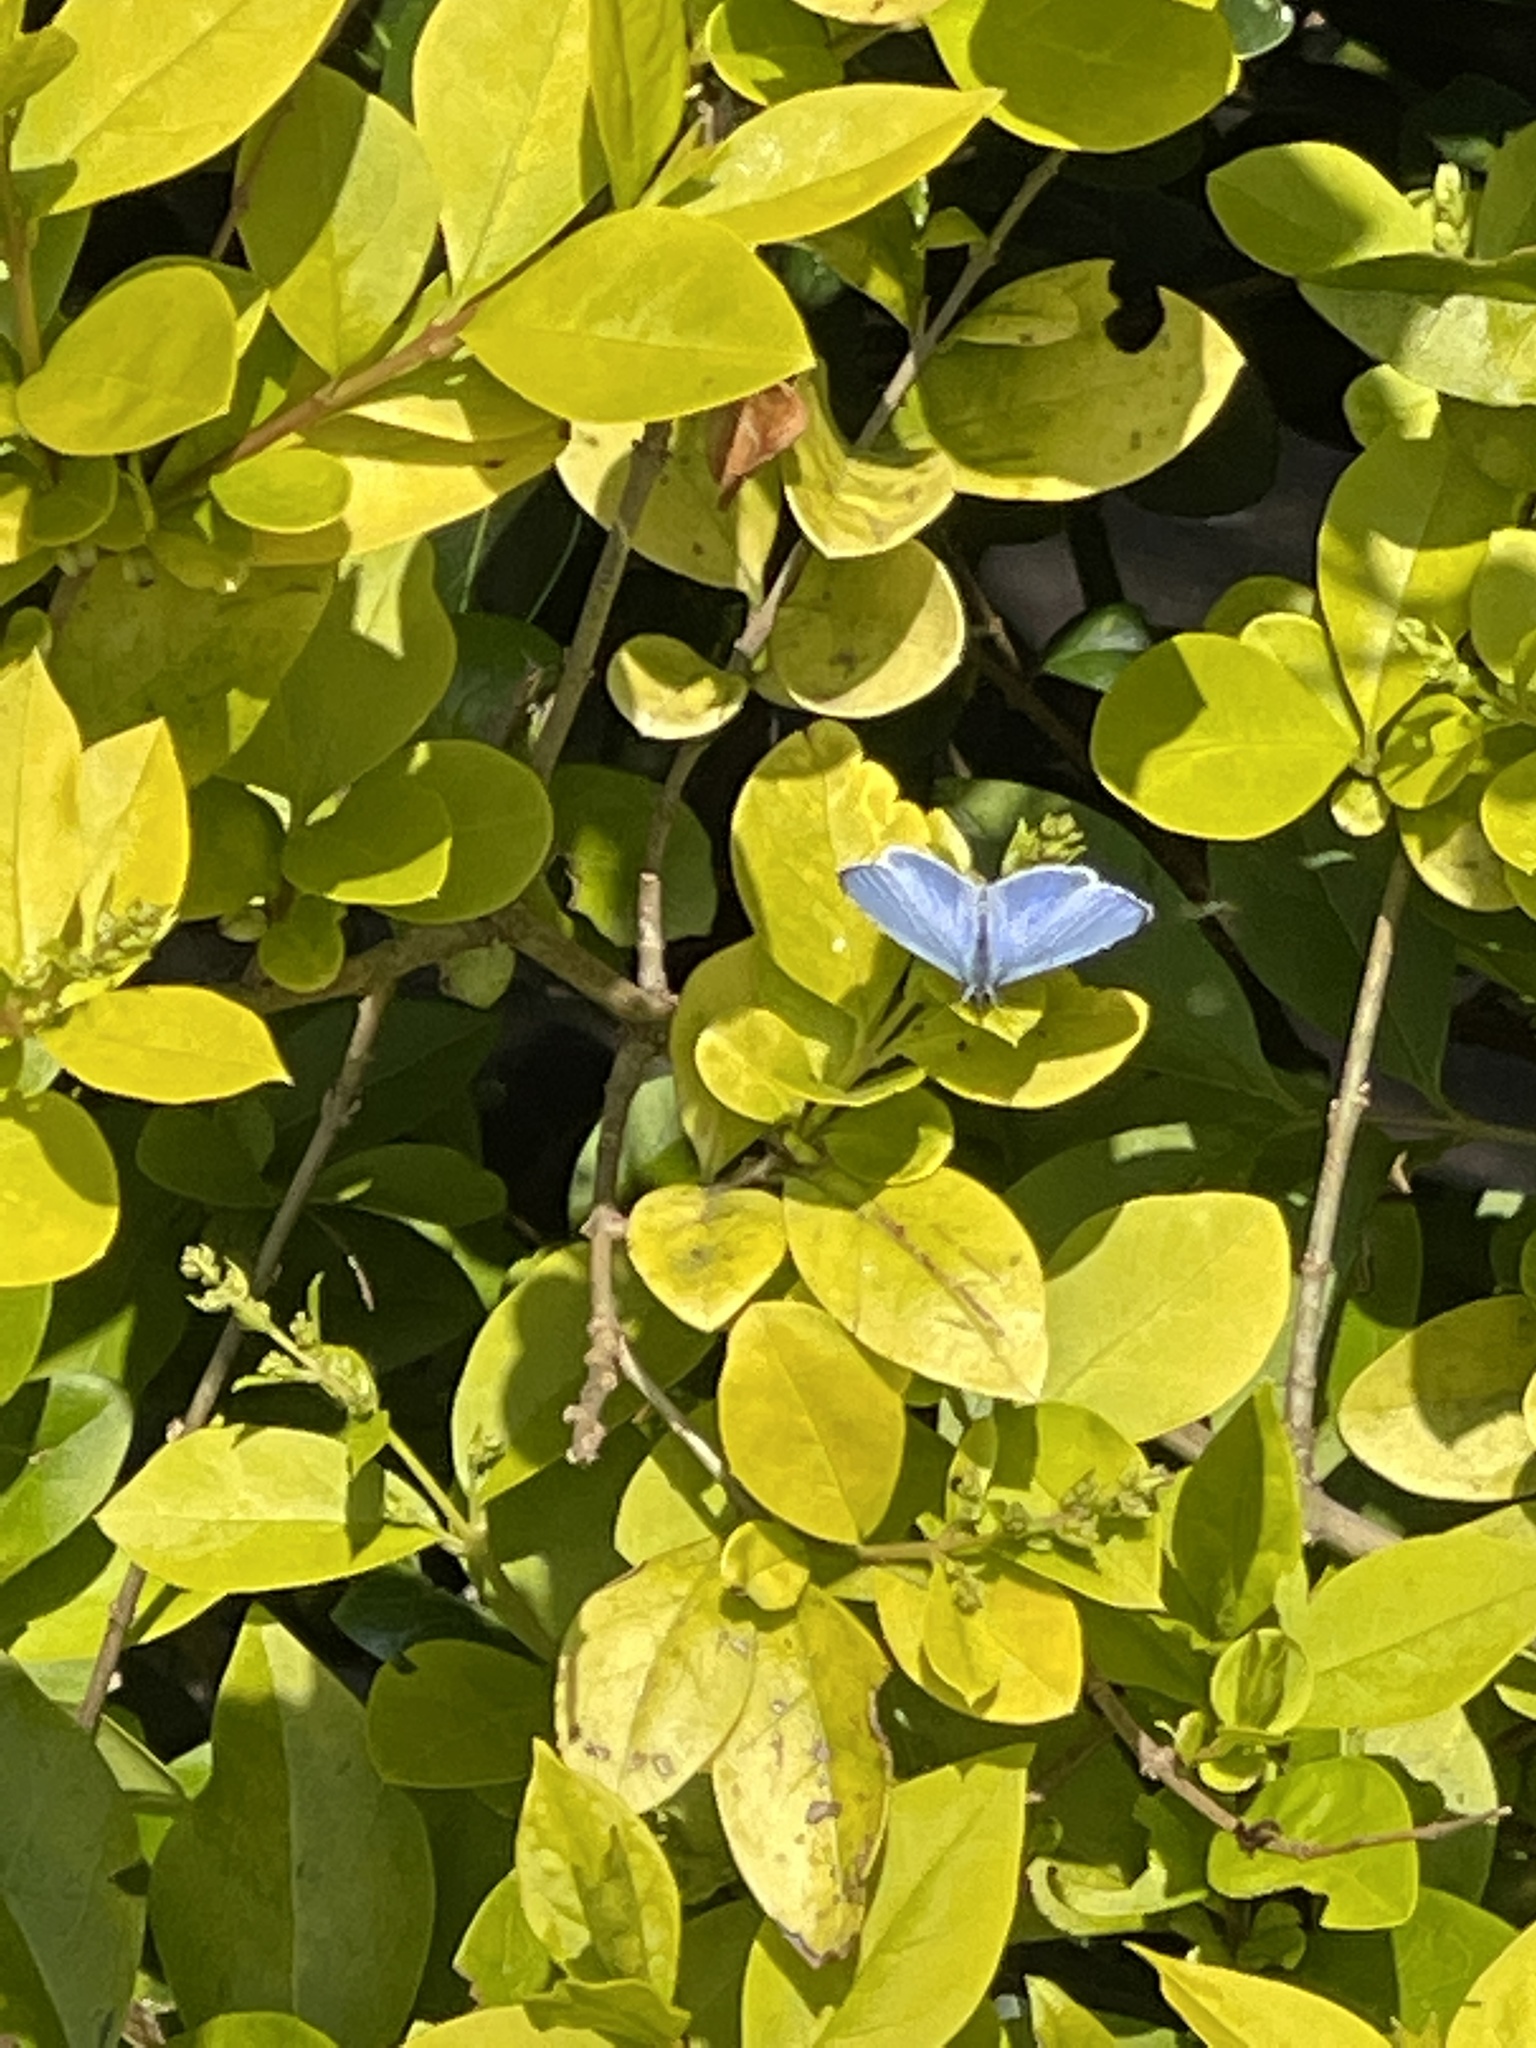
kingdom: Animalia
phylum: Arthropoda
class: Insecta
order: Lepidoptera
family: Lycaenidae
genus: Celastrina
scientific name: Celastrina argiolus
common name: Holly blue
